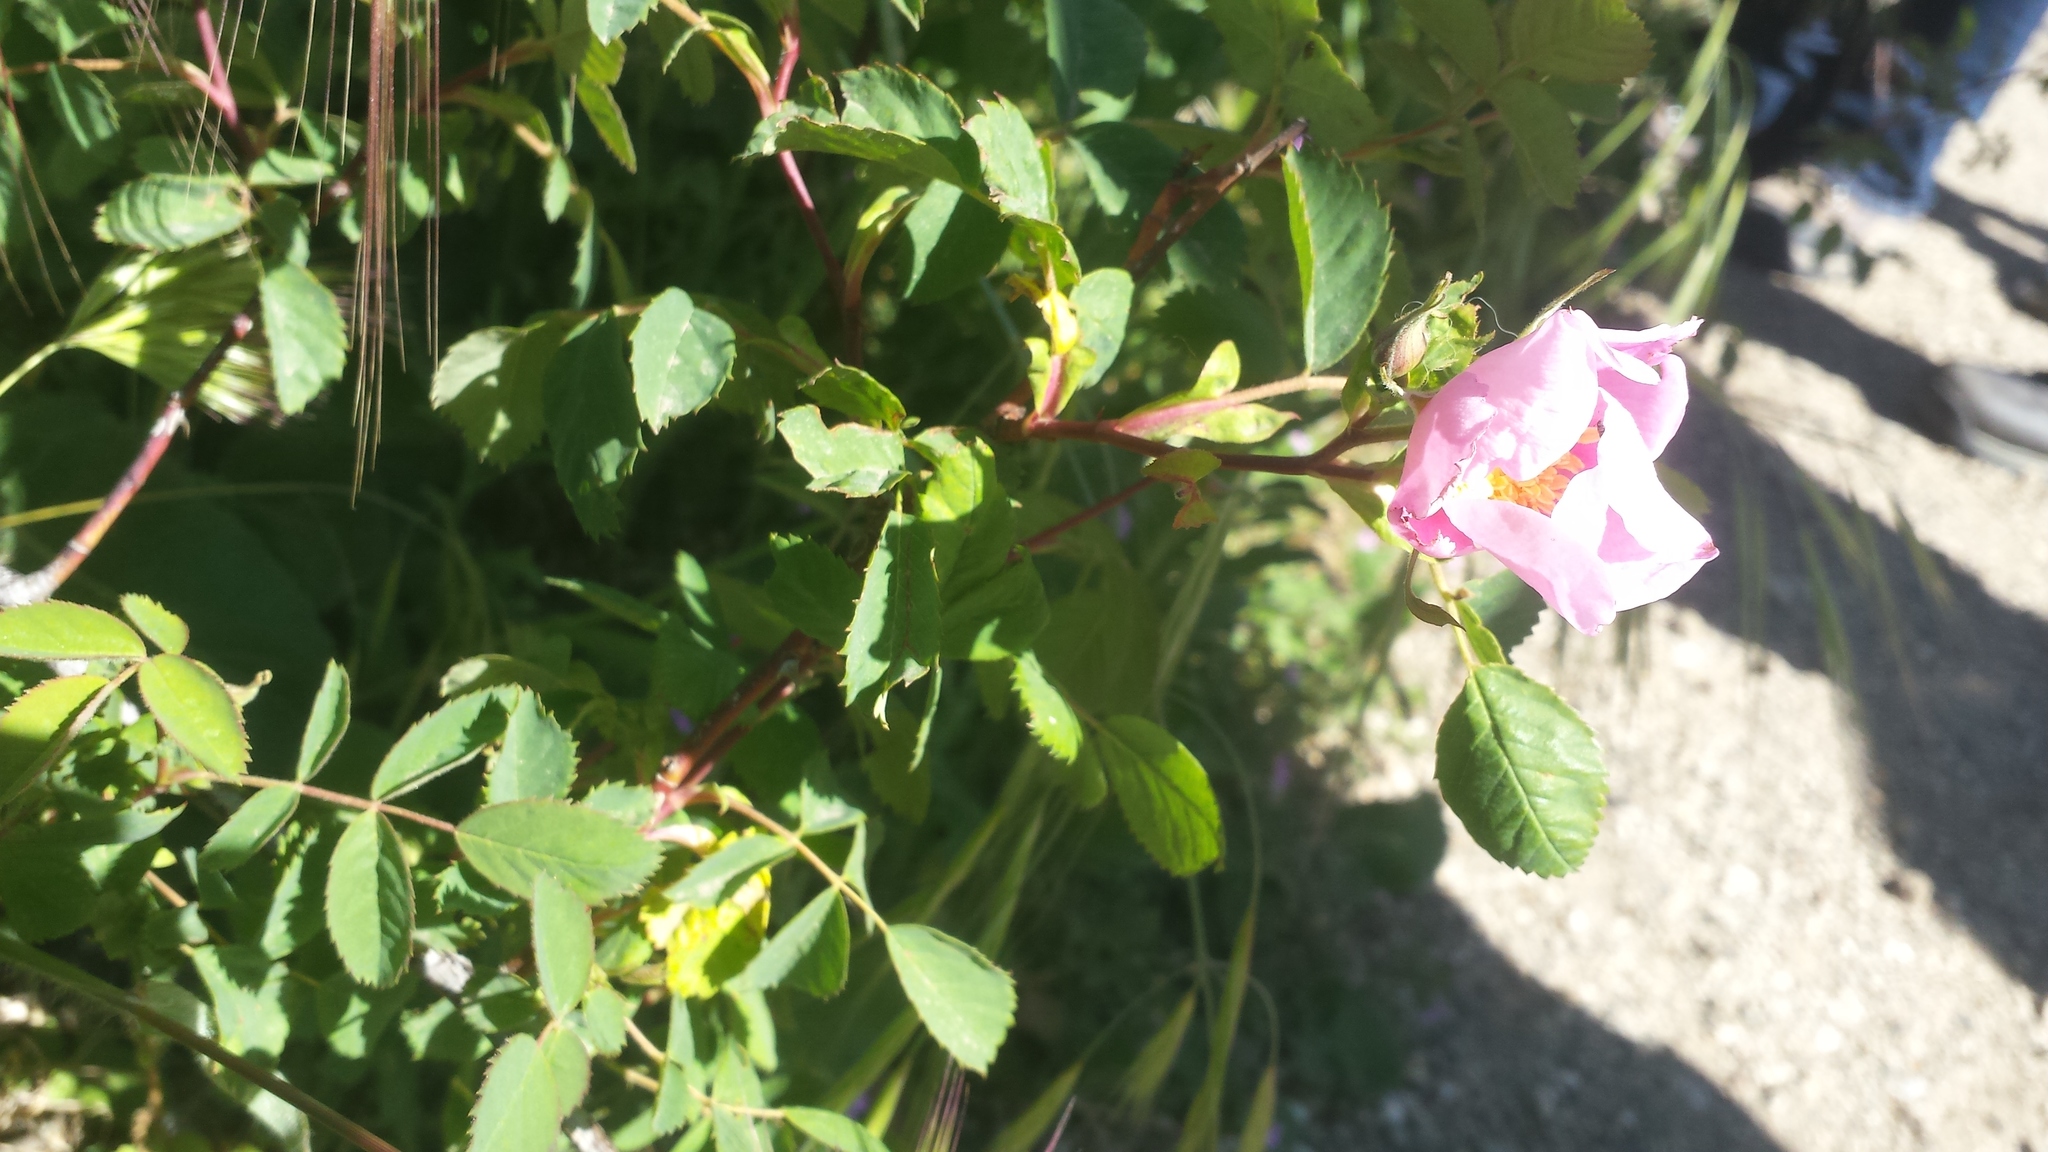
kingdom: Plantae
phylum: Tracheophyta
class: Magnoliopsida
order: Rosales
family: Rosaceae
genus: Rosa
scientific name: Rosa californica
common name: California rose
